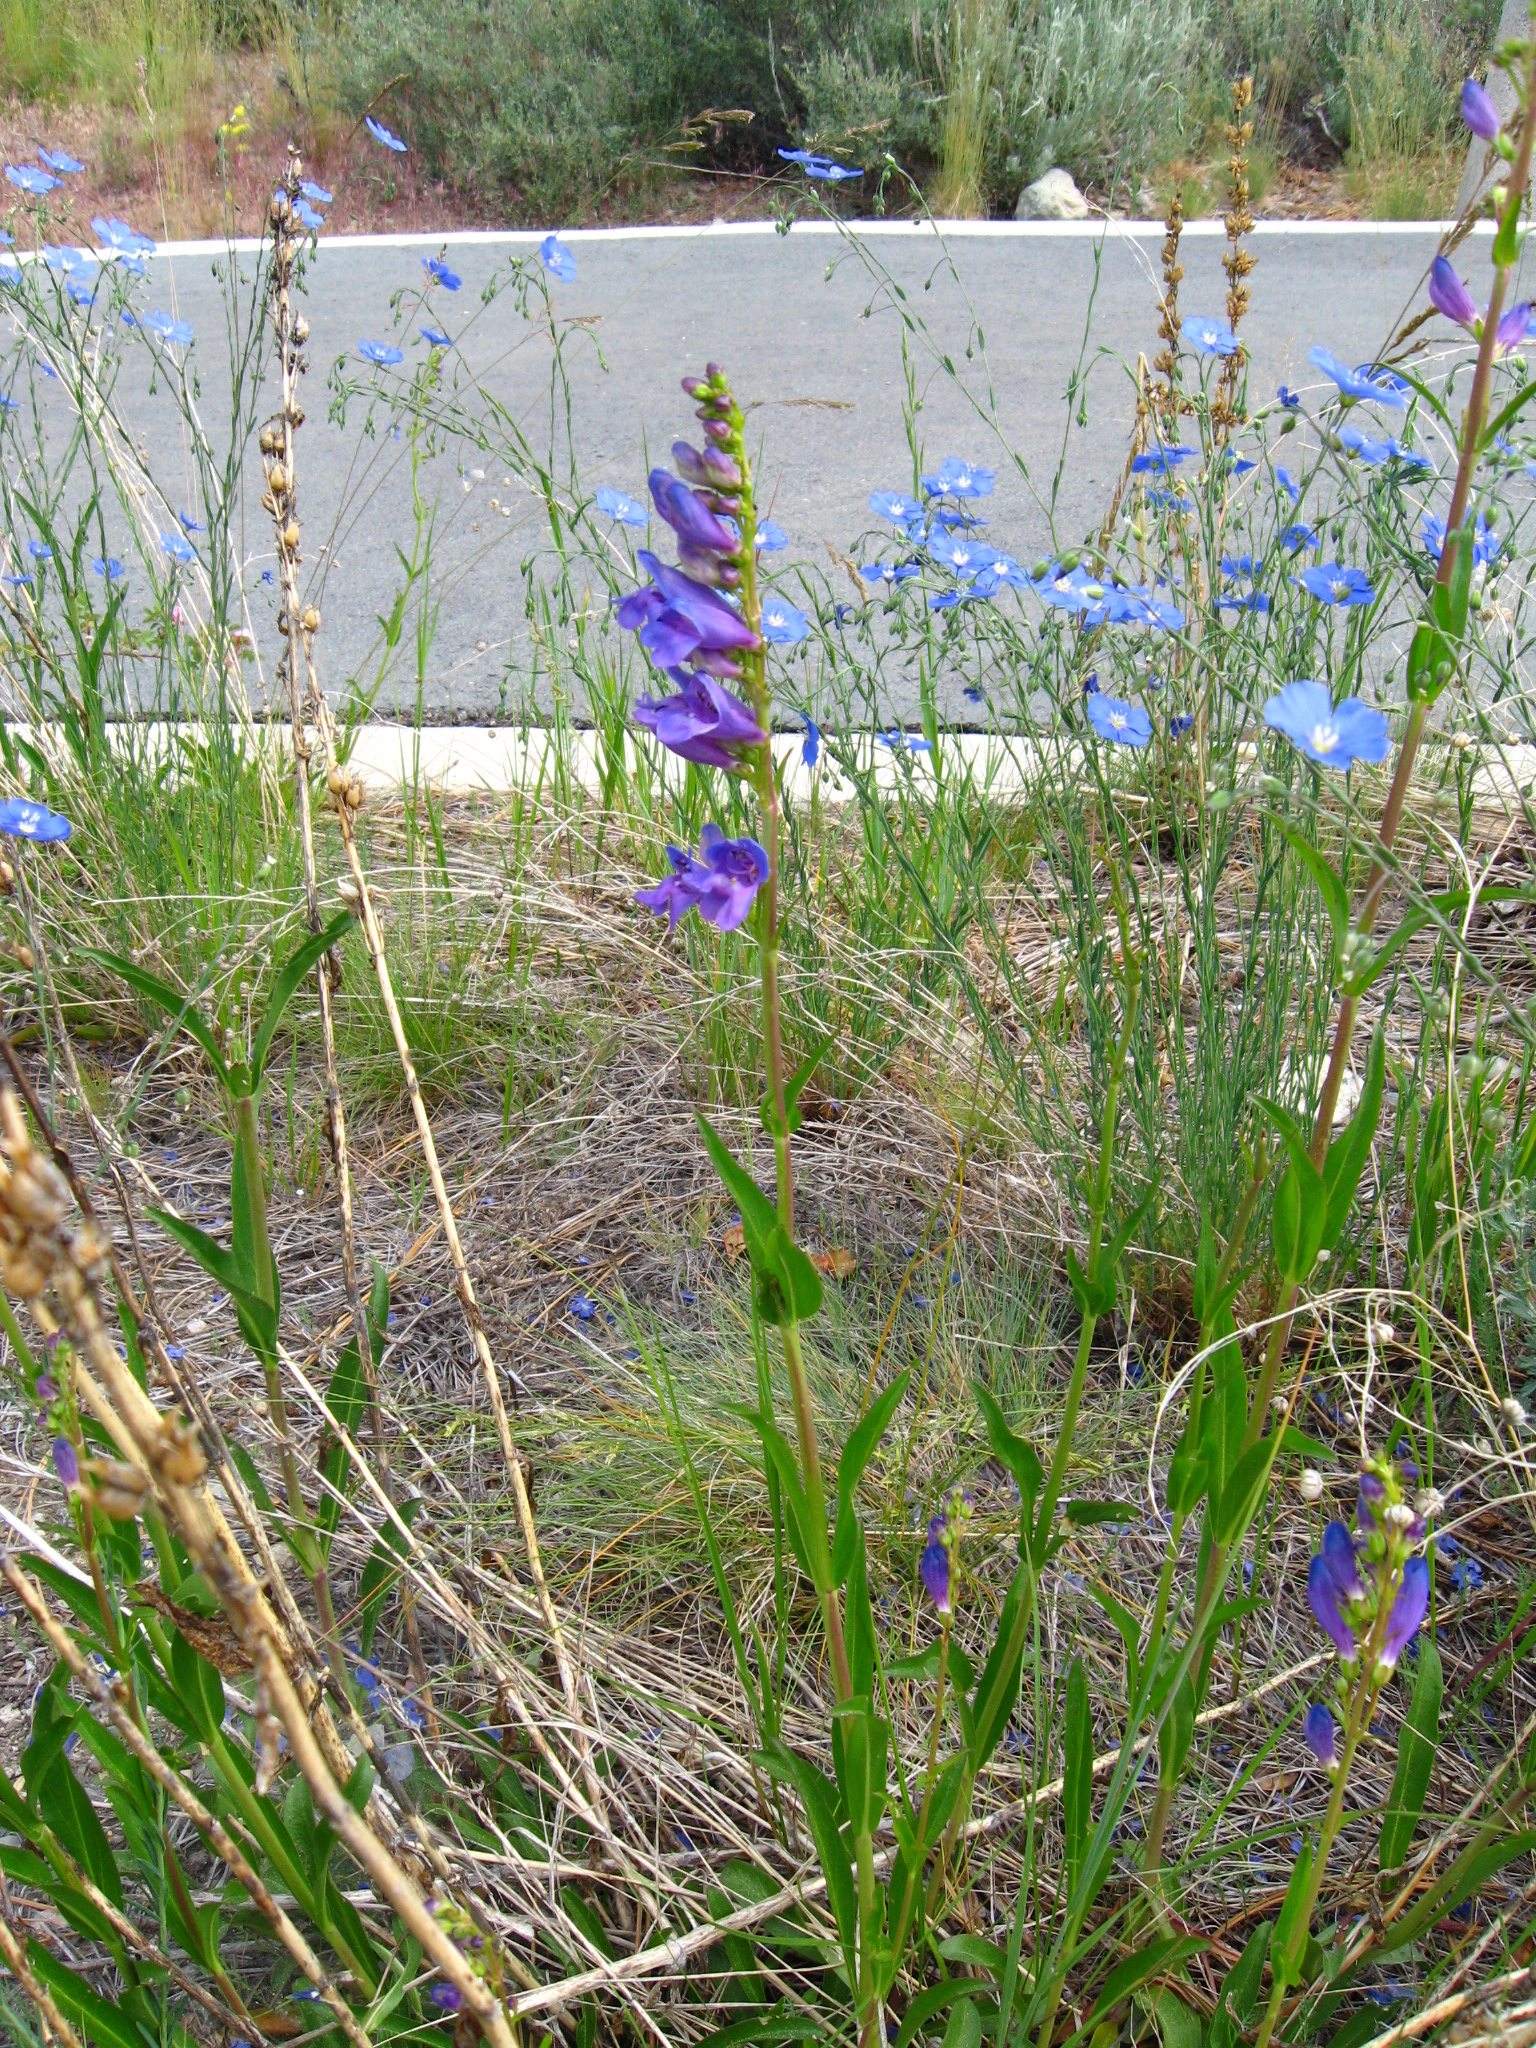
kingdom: Plantae
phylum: Tracheophyta
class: Magnoliopsida
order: Lamiales
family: Plantaginaceae
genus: Penstemon
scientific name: Penstemon strictus
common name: Rocky mountain penstemon
